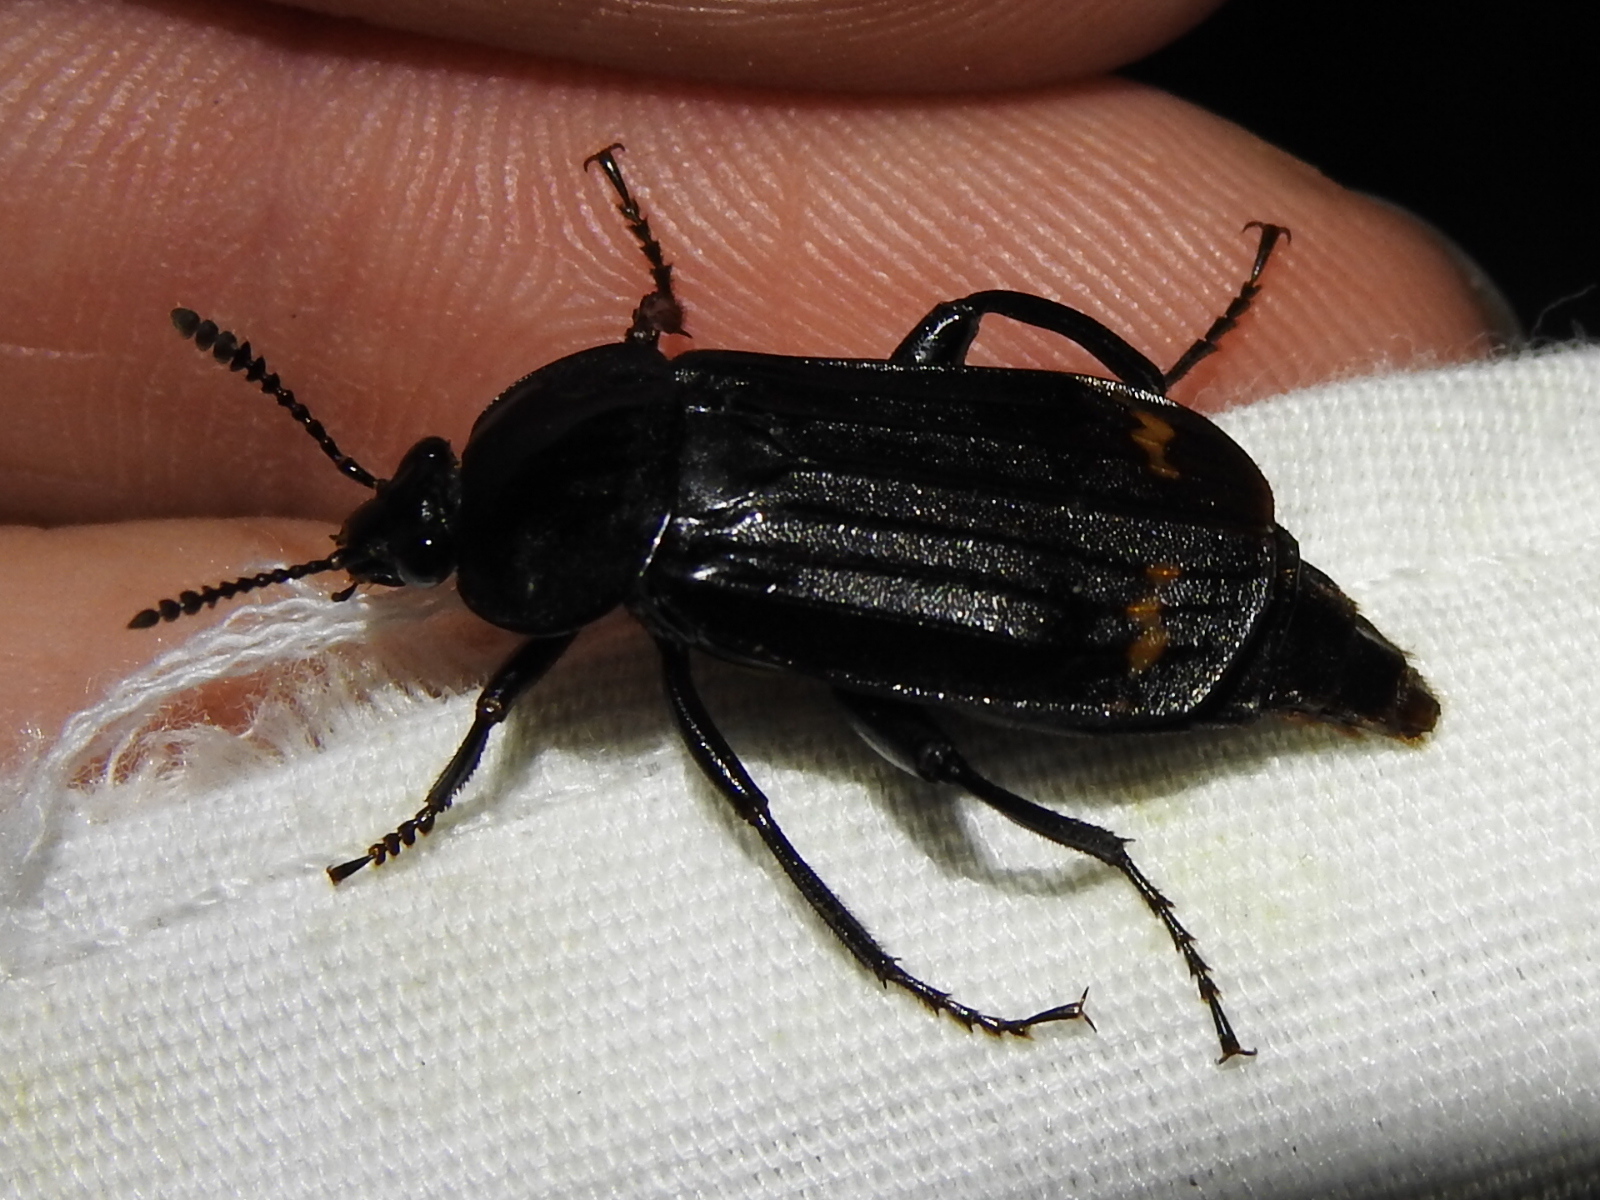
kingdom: Animalia
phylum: Arthropoda
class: Insecta
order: Coleoptera
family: Staphylinidae
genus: Necrodes
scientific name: Necrodes surinamensis
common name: Red-lined carrion beetle
